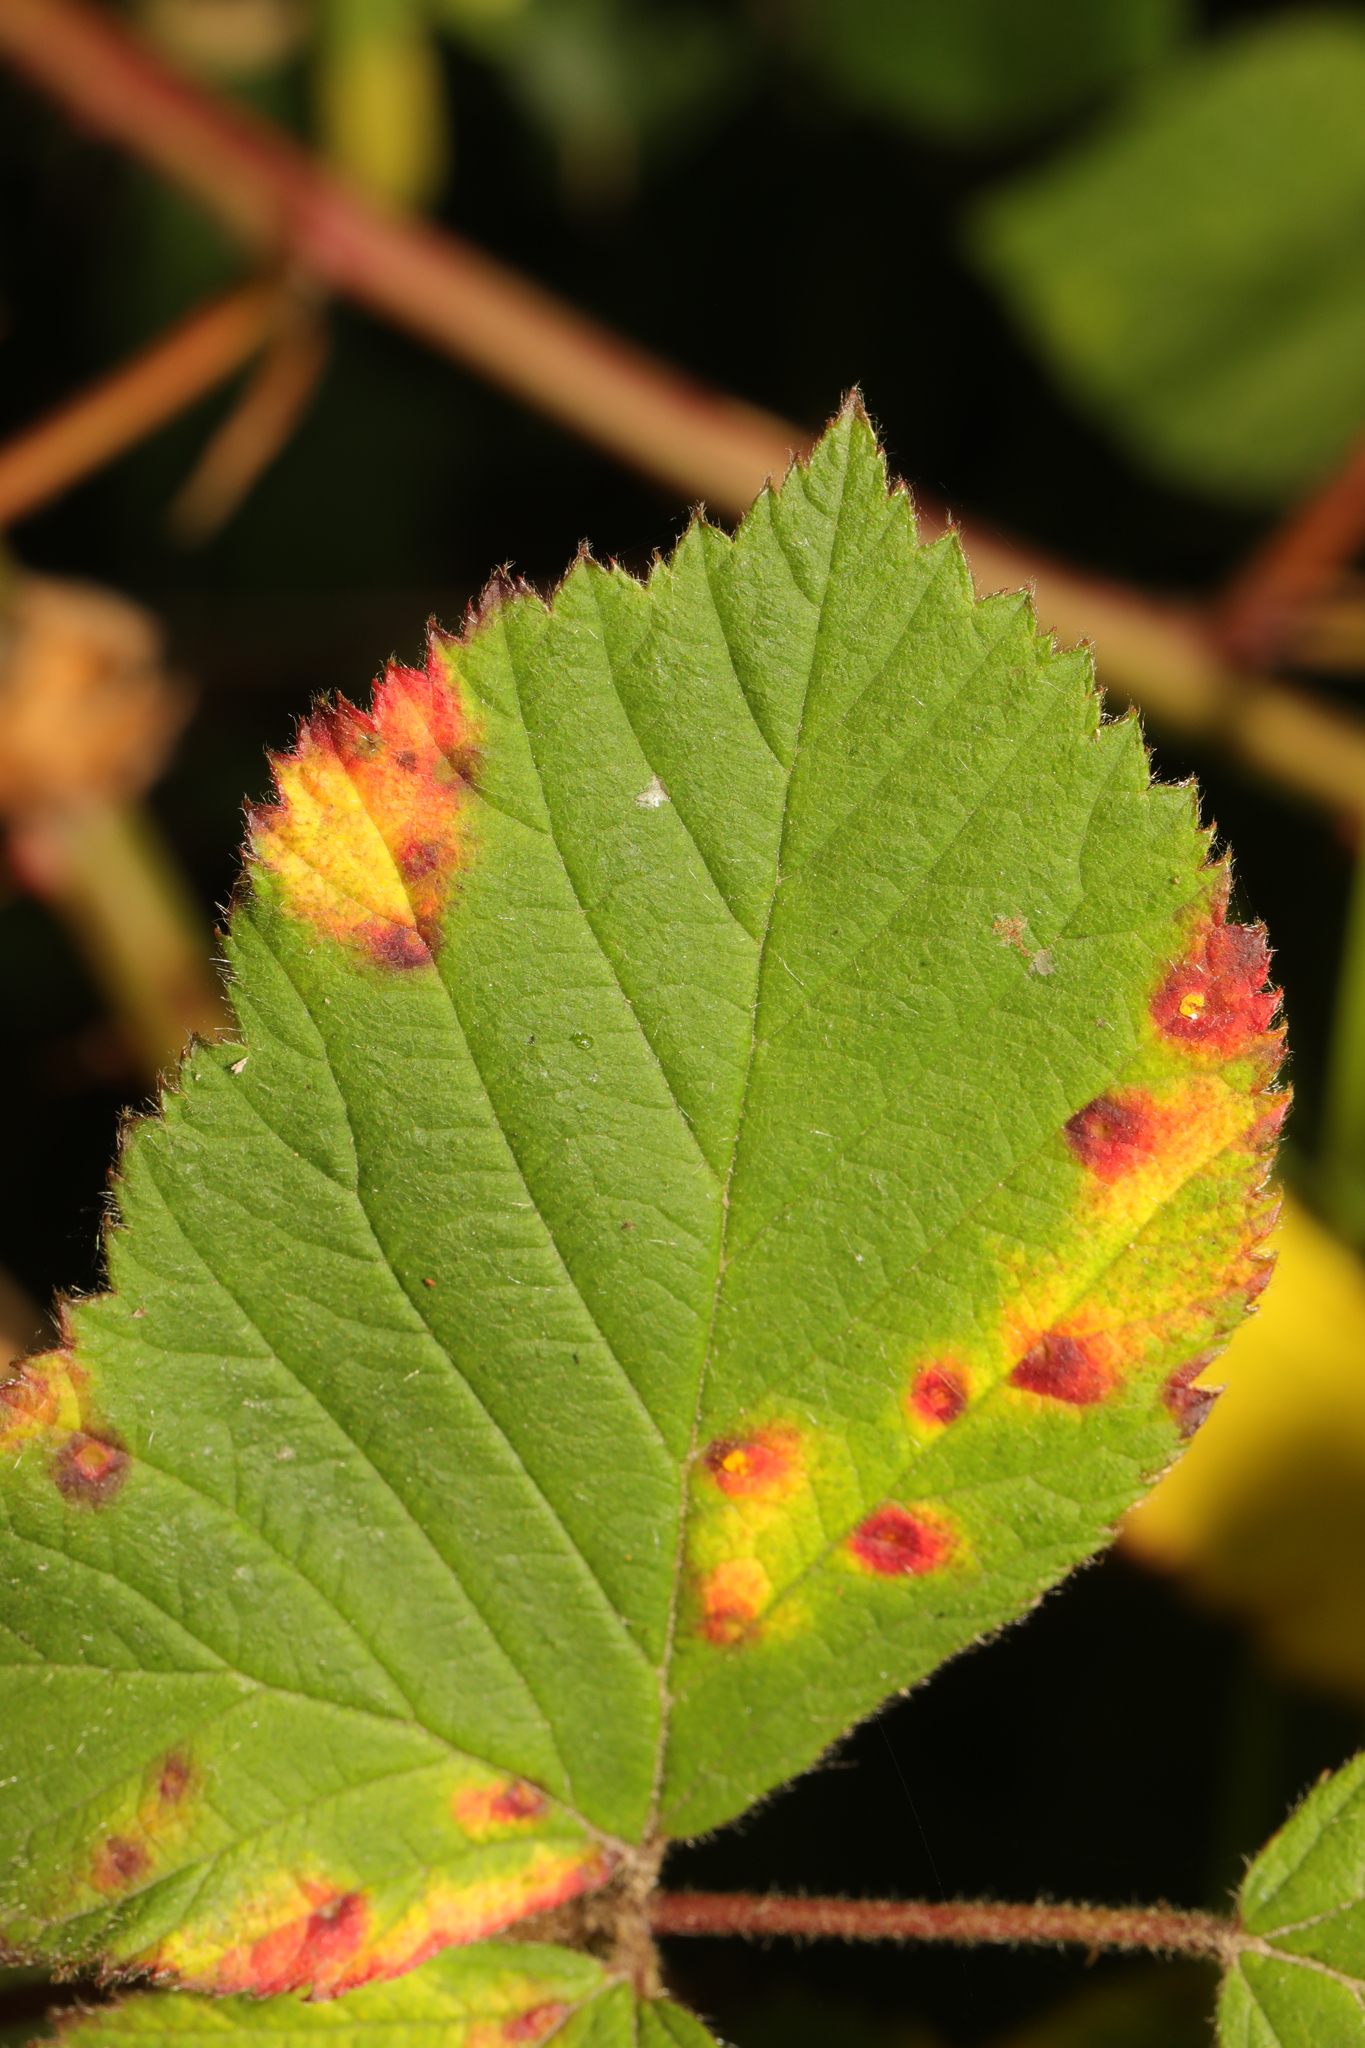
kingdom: Fungi
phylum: Basidiomycota
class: Pucciniomycetes
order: Pucciniales
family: Phragmidiaceae
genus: Phragmidium
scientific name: Phragmidium violaceum
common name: Violet bramble rust
